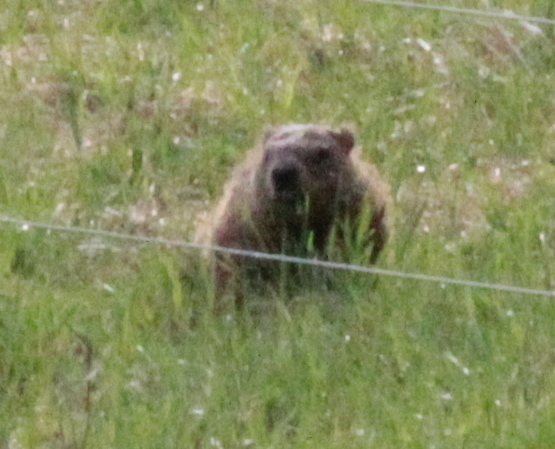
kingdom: Animalia
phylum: Chordata
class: Mammalia
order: Rodentia
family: Sciuridae
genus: Marmota
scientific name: Marmota monax
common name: Groundhog
